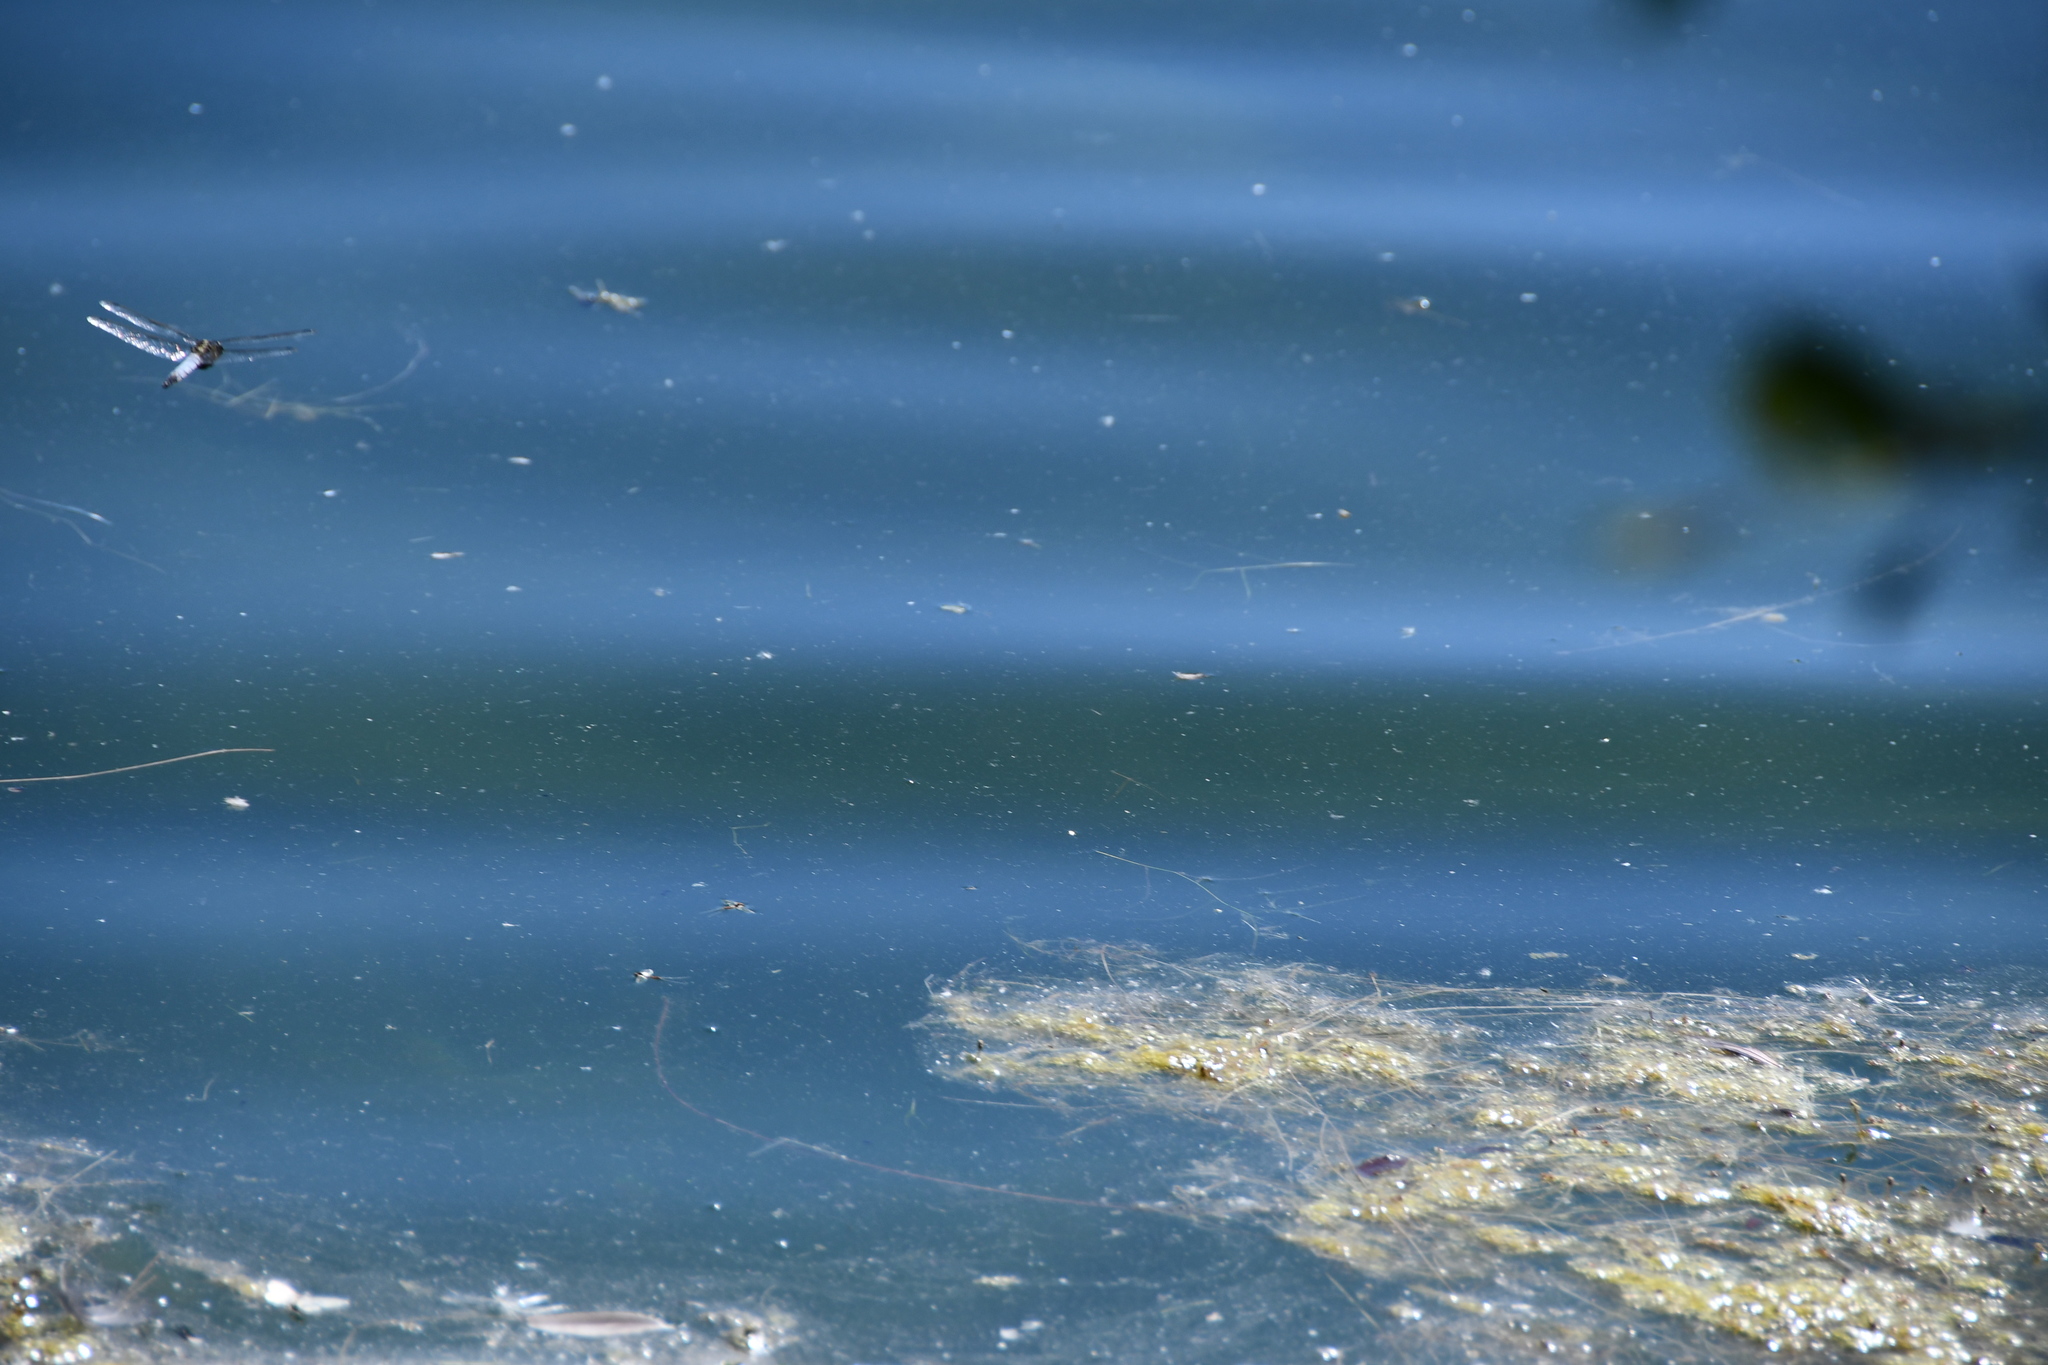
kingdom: Animalia
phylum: Arthropoda
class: Insecta
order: Odonata
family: Libellulidae
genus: Orthetrum
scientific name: Orthetrum cancellatum
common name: Black-tailed skimmer
